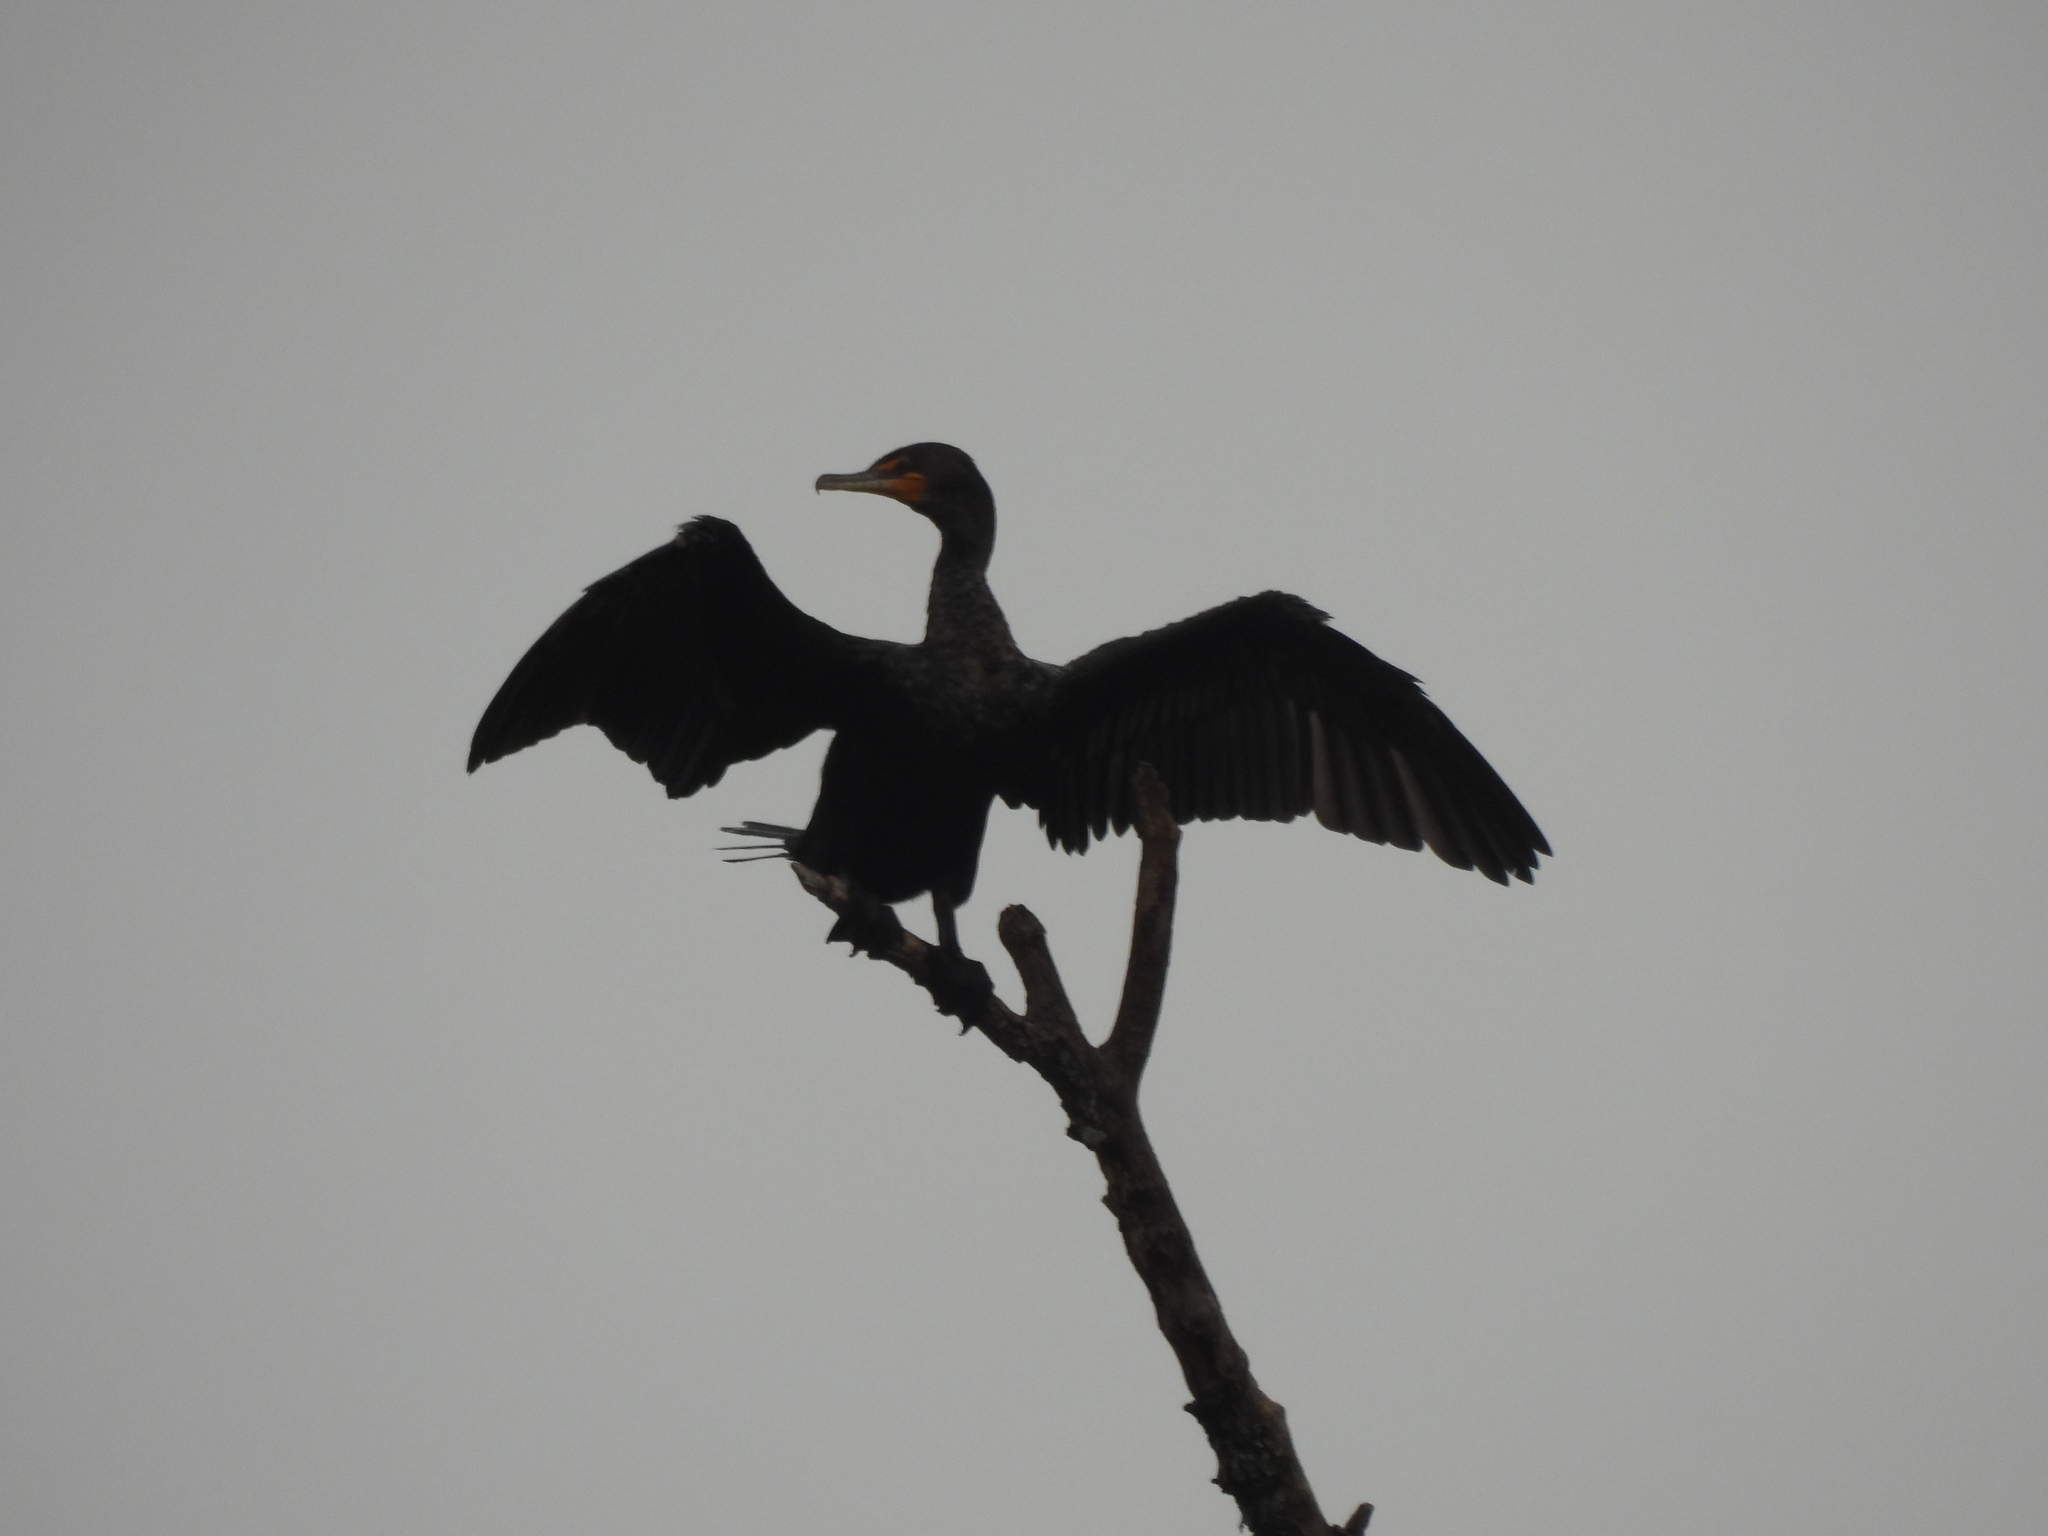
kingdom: Animalia
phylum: Chordata
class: Aves
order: Suliformes
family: Phalacrocoracidae
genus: Phalacrocorax
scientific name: Phalacrocorax auritus
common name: Double-crested cormorant
